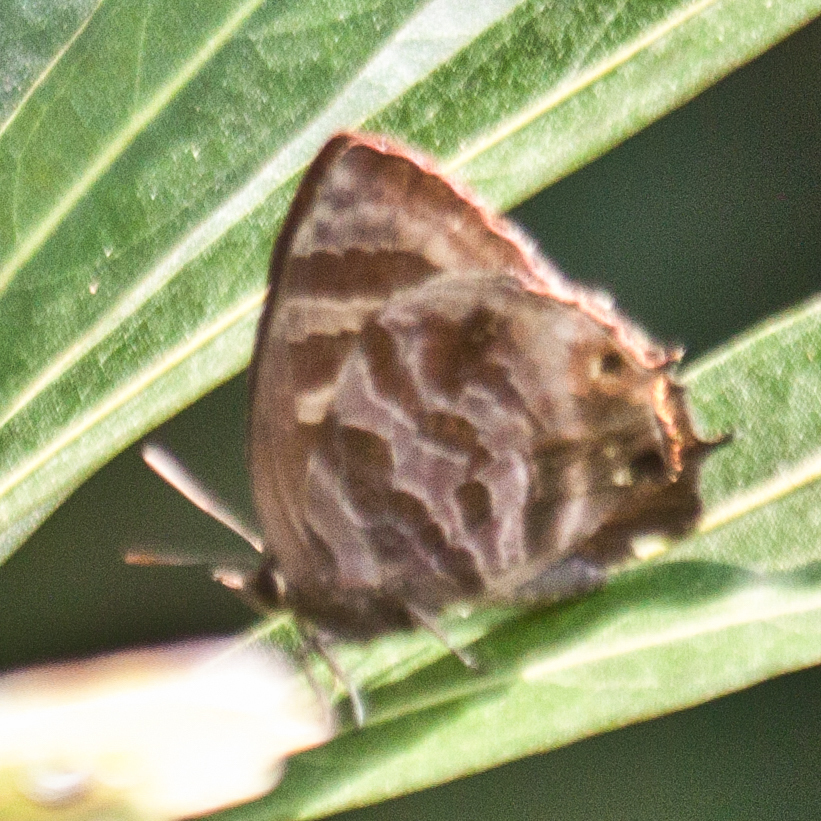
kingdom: Animalia
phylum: Arthropoda
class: Insecta
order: Lepidoptera
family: Lycaenidae
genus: Flos
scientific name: Flos
